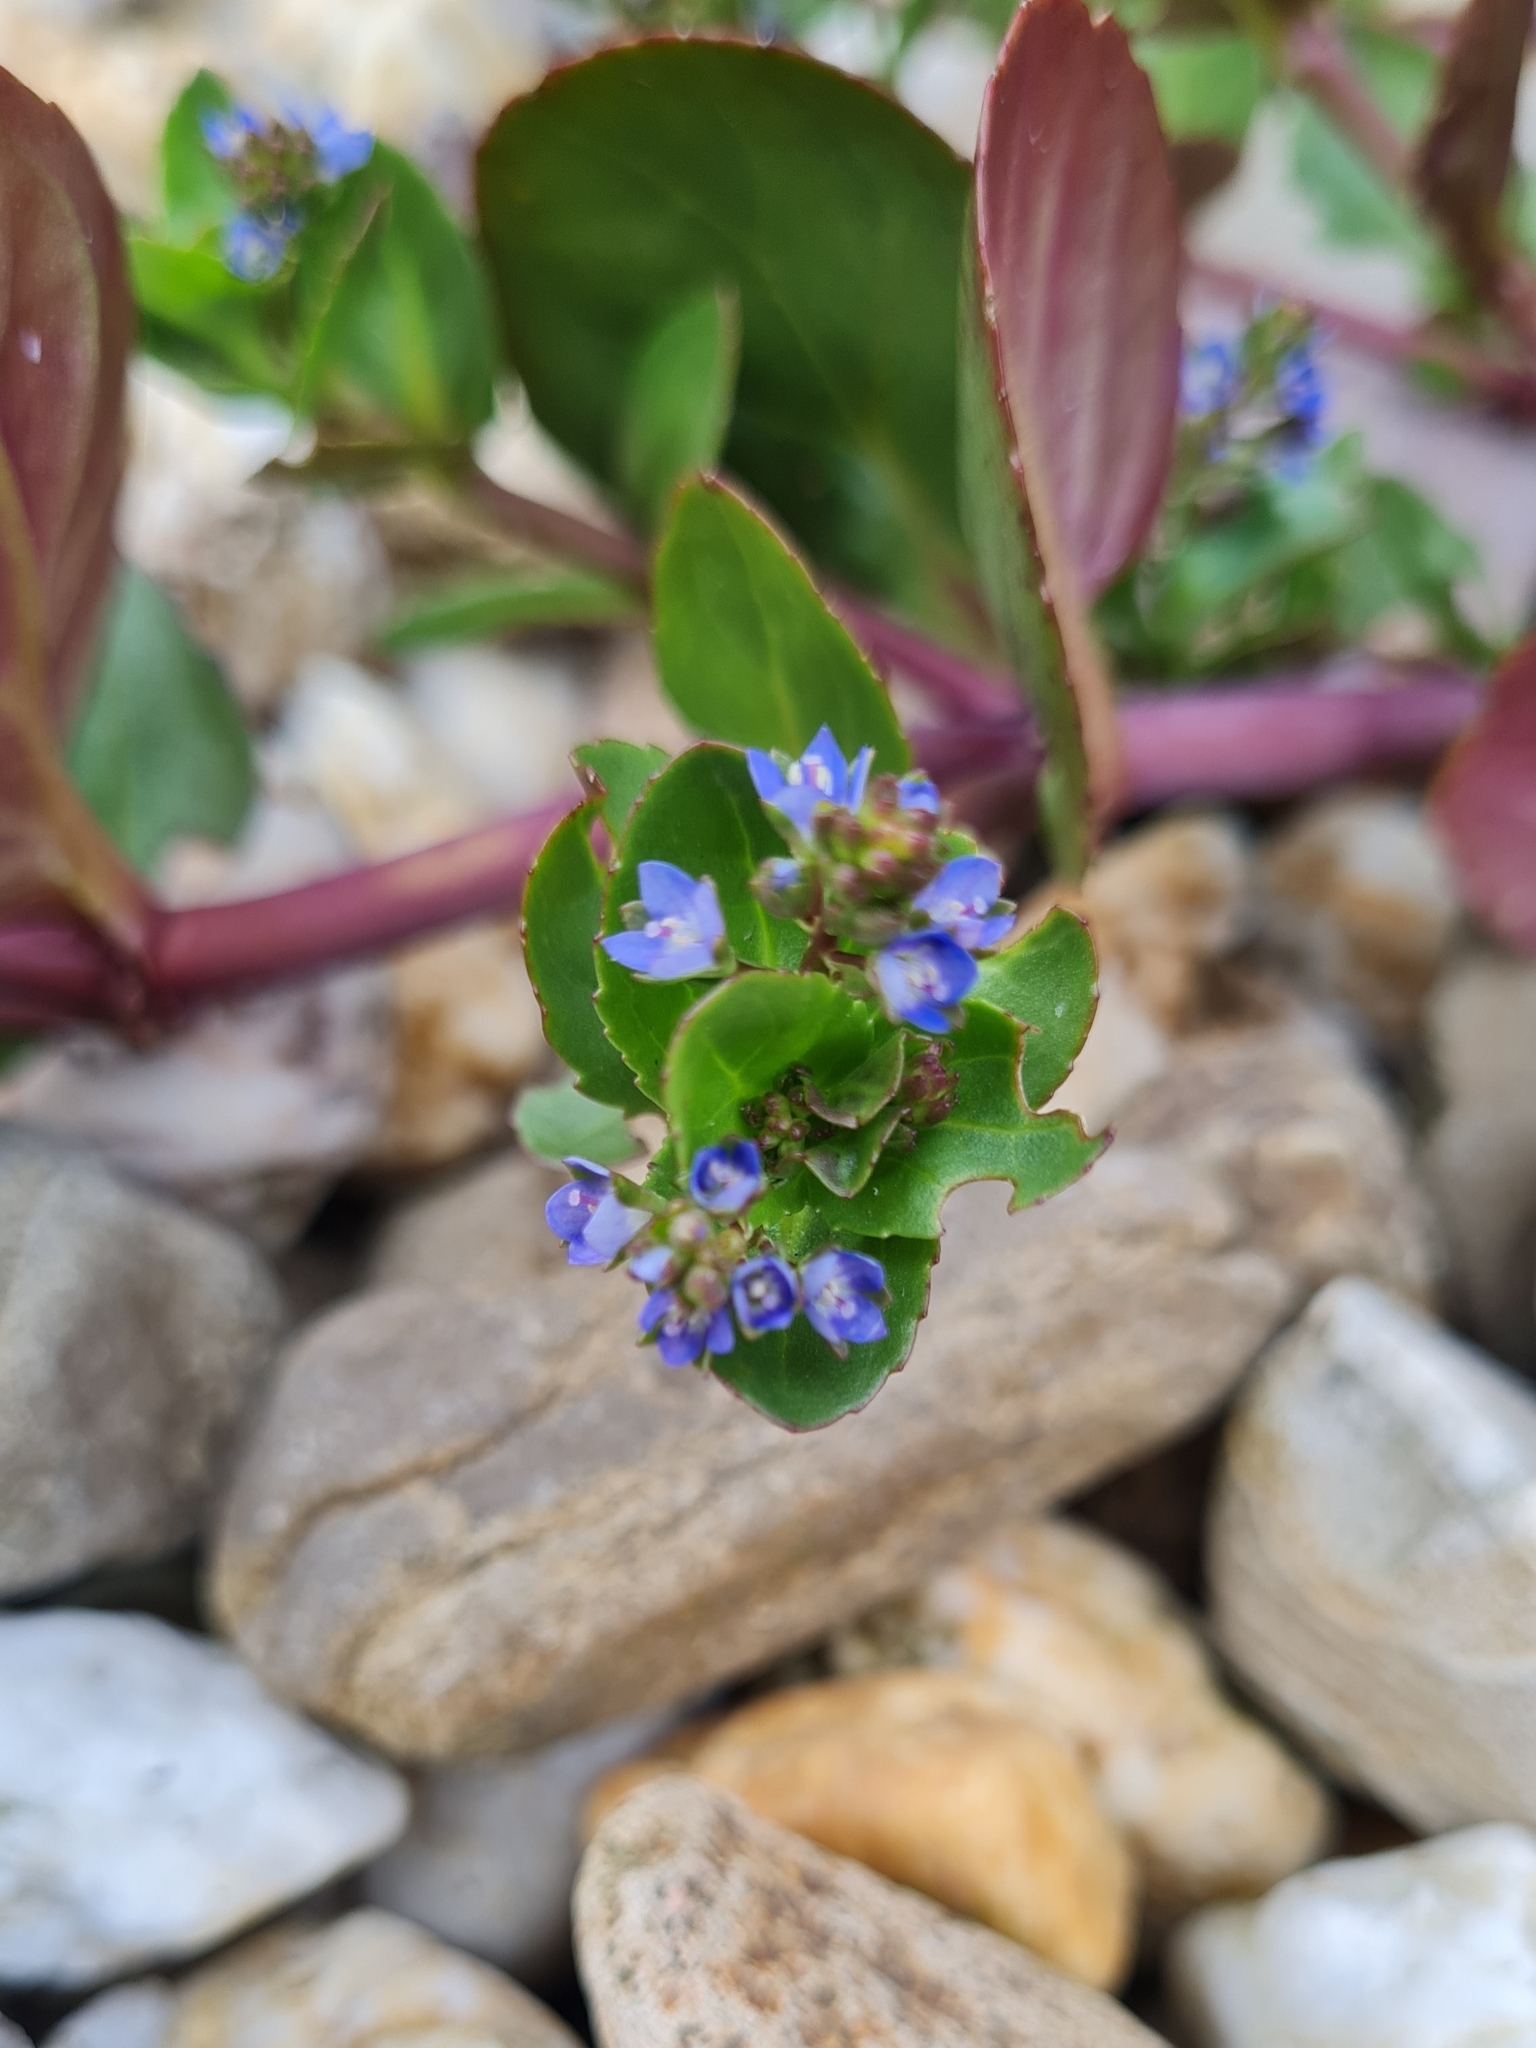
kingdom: Plantae
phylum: Tracheophyta
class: Magnoliopsida
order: Lamiales
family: Plantaginaceae
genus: Veronica
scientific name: Veronica beccabunga
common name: Brooklime
